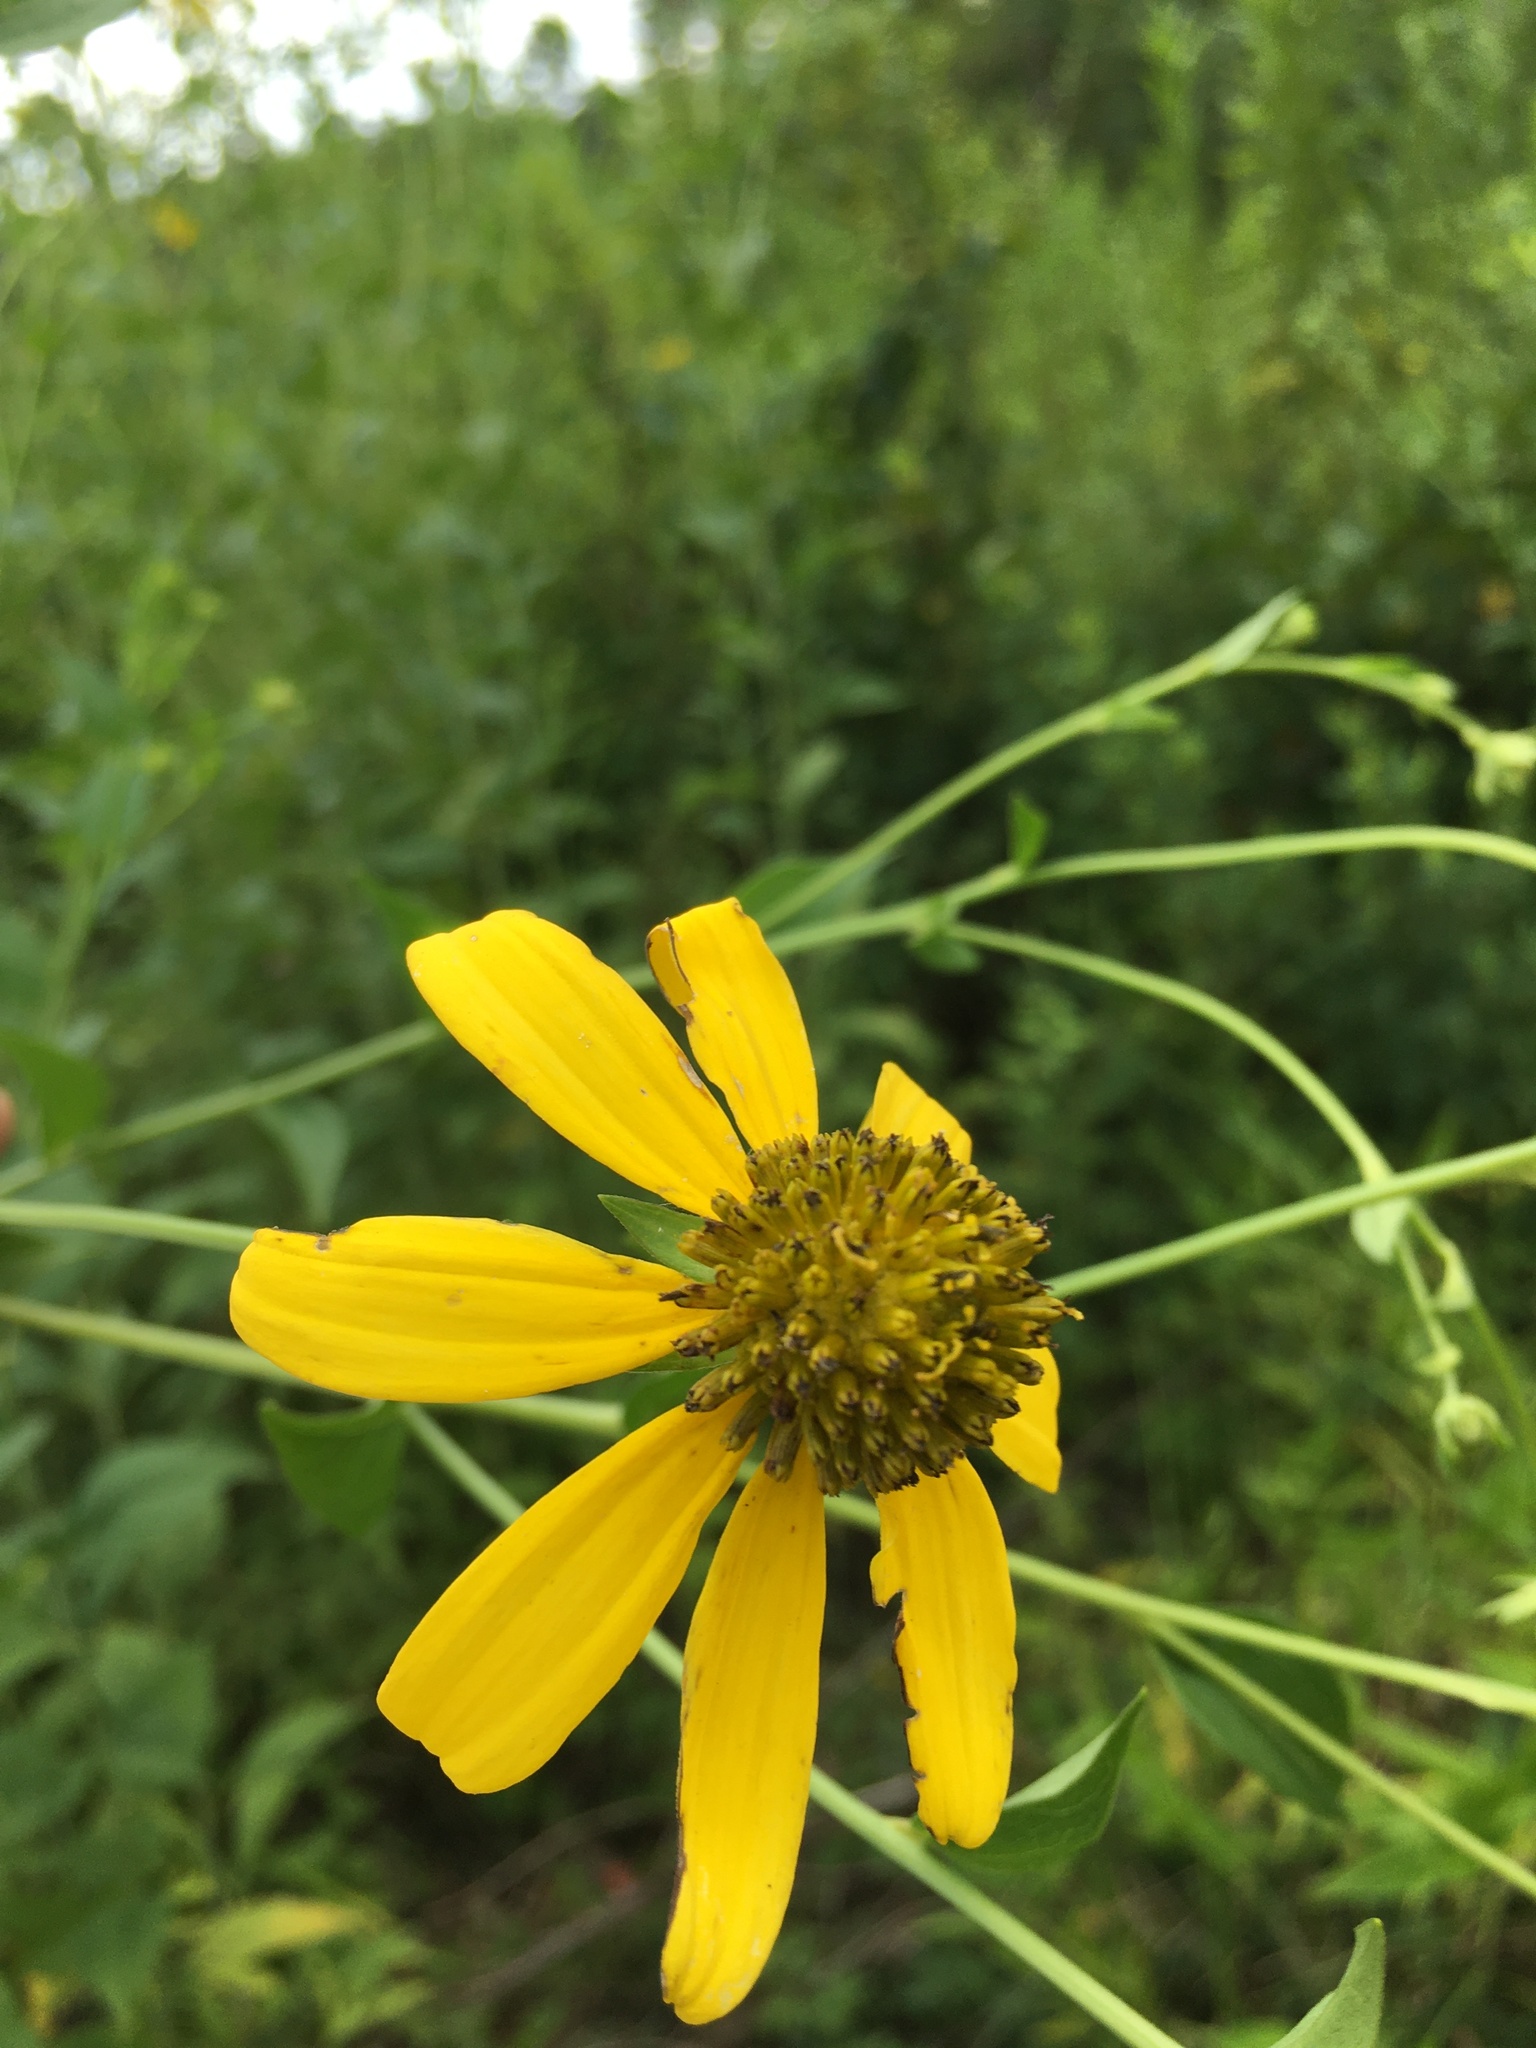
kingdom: Plantae
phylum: Tracheophyta
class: Magnoliopsida
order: Asterales
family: Asteraceae
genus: Rudbeckia
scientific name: Rudbeckia laciniata
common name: Coneflower
